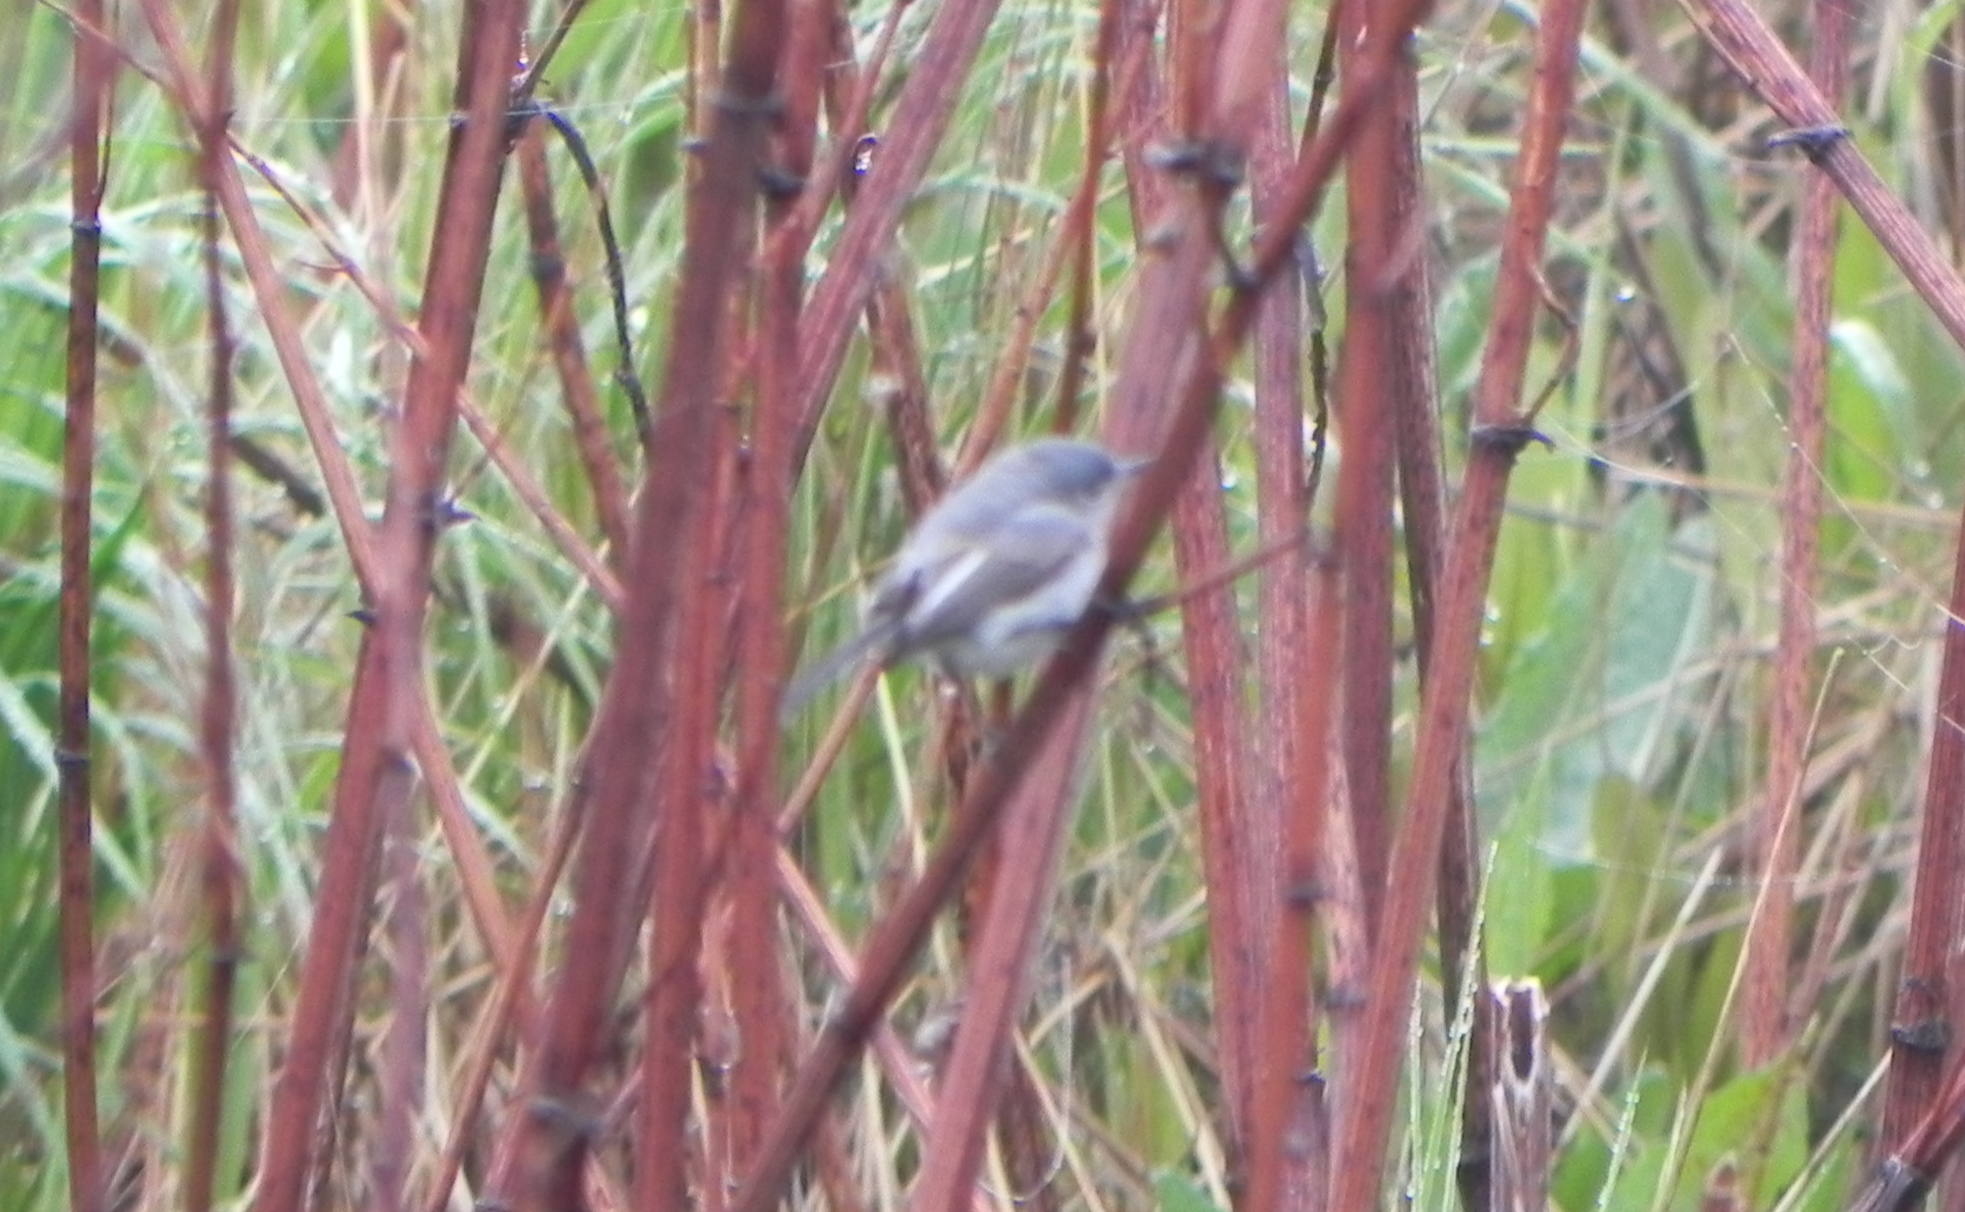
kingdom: Animalia
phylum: Chordata
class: Aves
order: Passeriformes
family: Polioptilidae
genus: Polioptila
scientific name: Polioptila caerulea
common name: Blue-gray gnatcatcher
